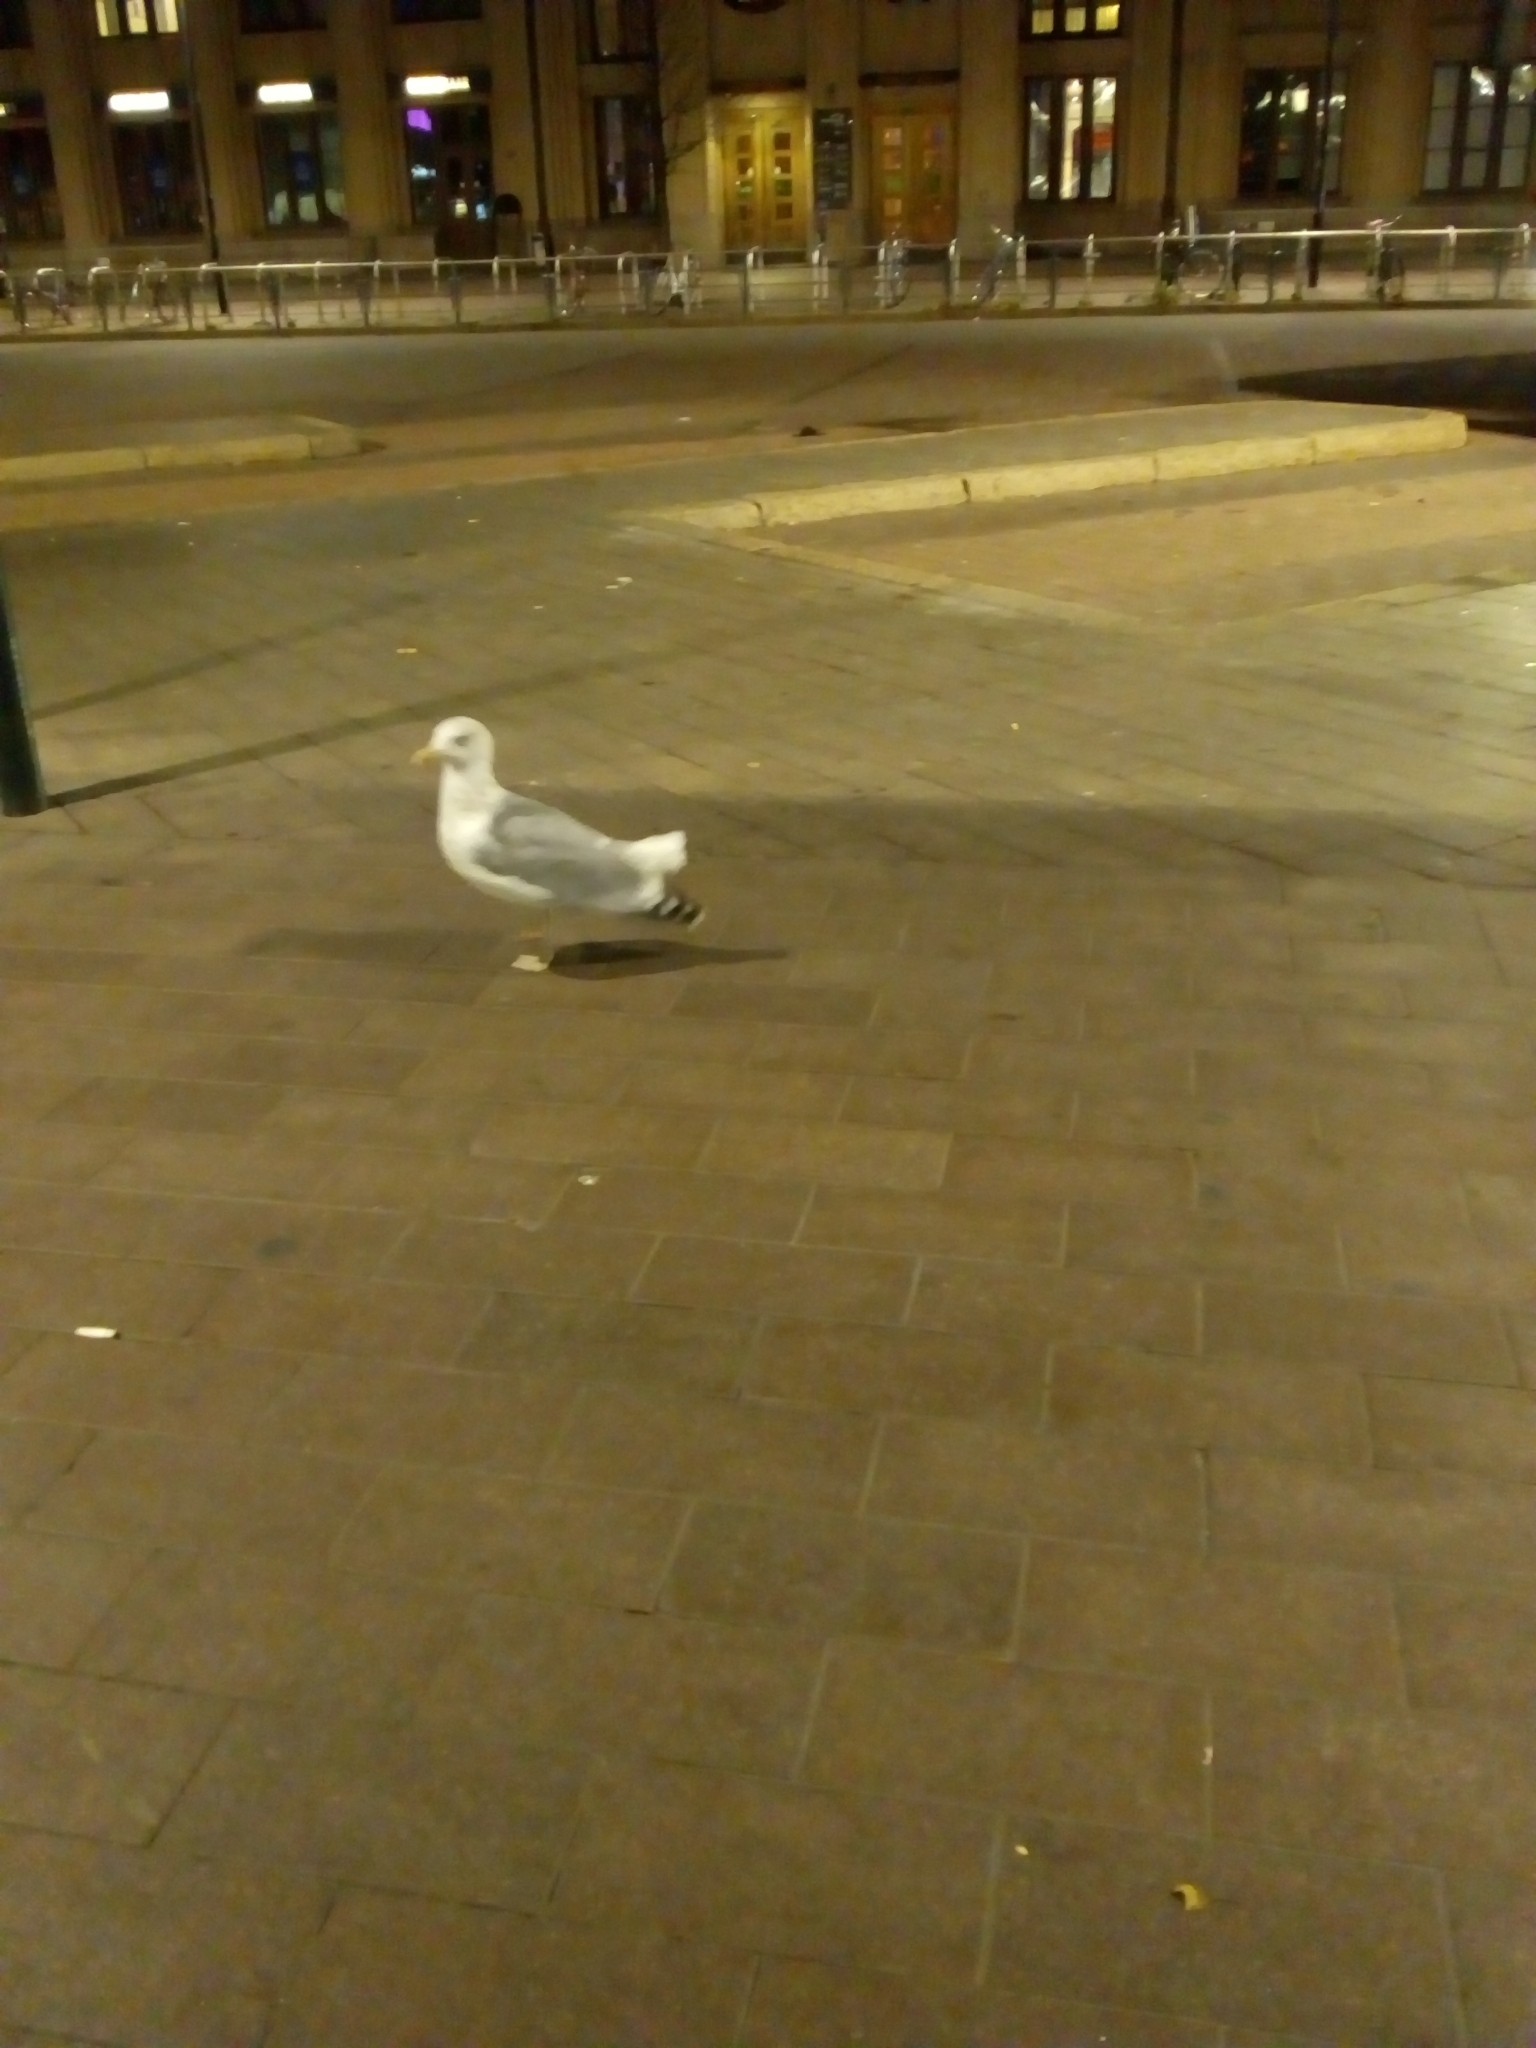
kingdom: Animalia
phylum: Chordata
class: Aves
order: Charadriiformes
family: Laridae
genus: Larus
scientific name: Larus argentatus
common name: Herring gull
